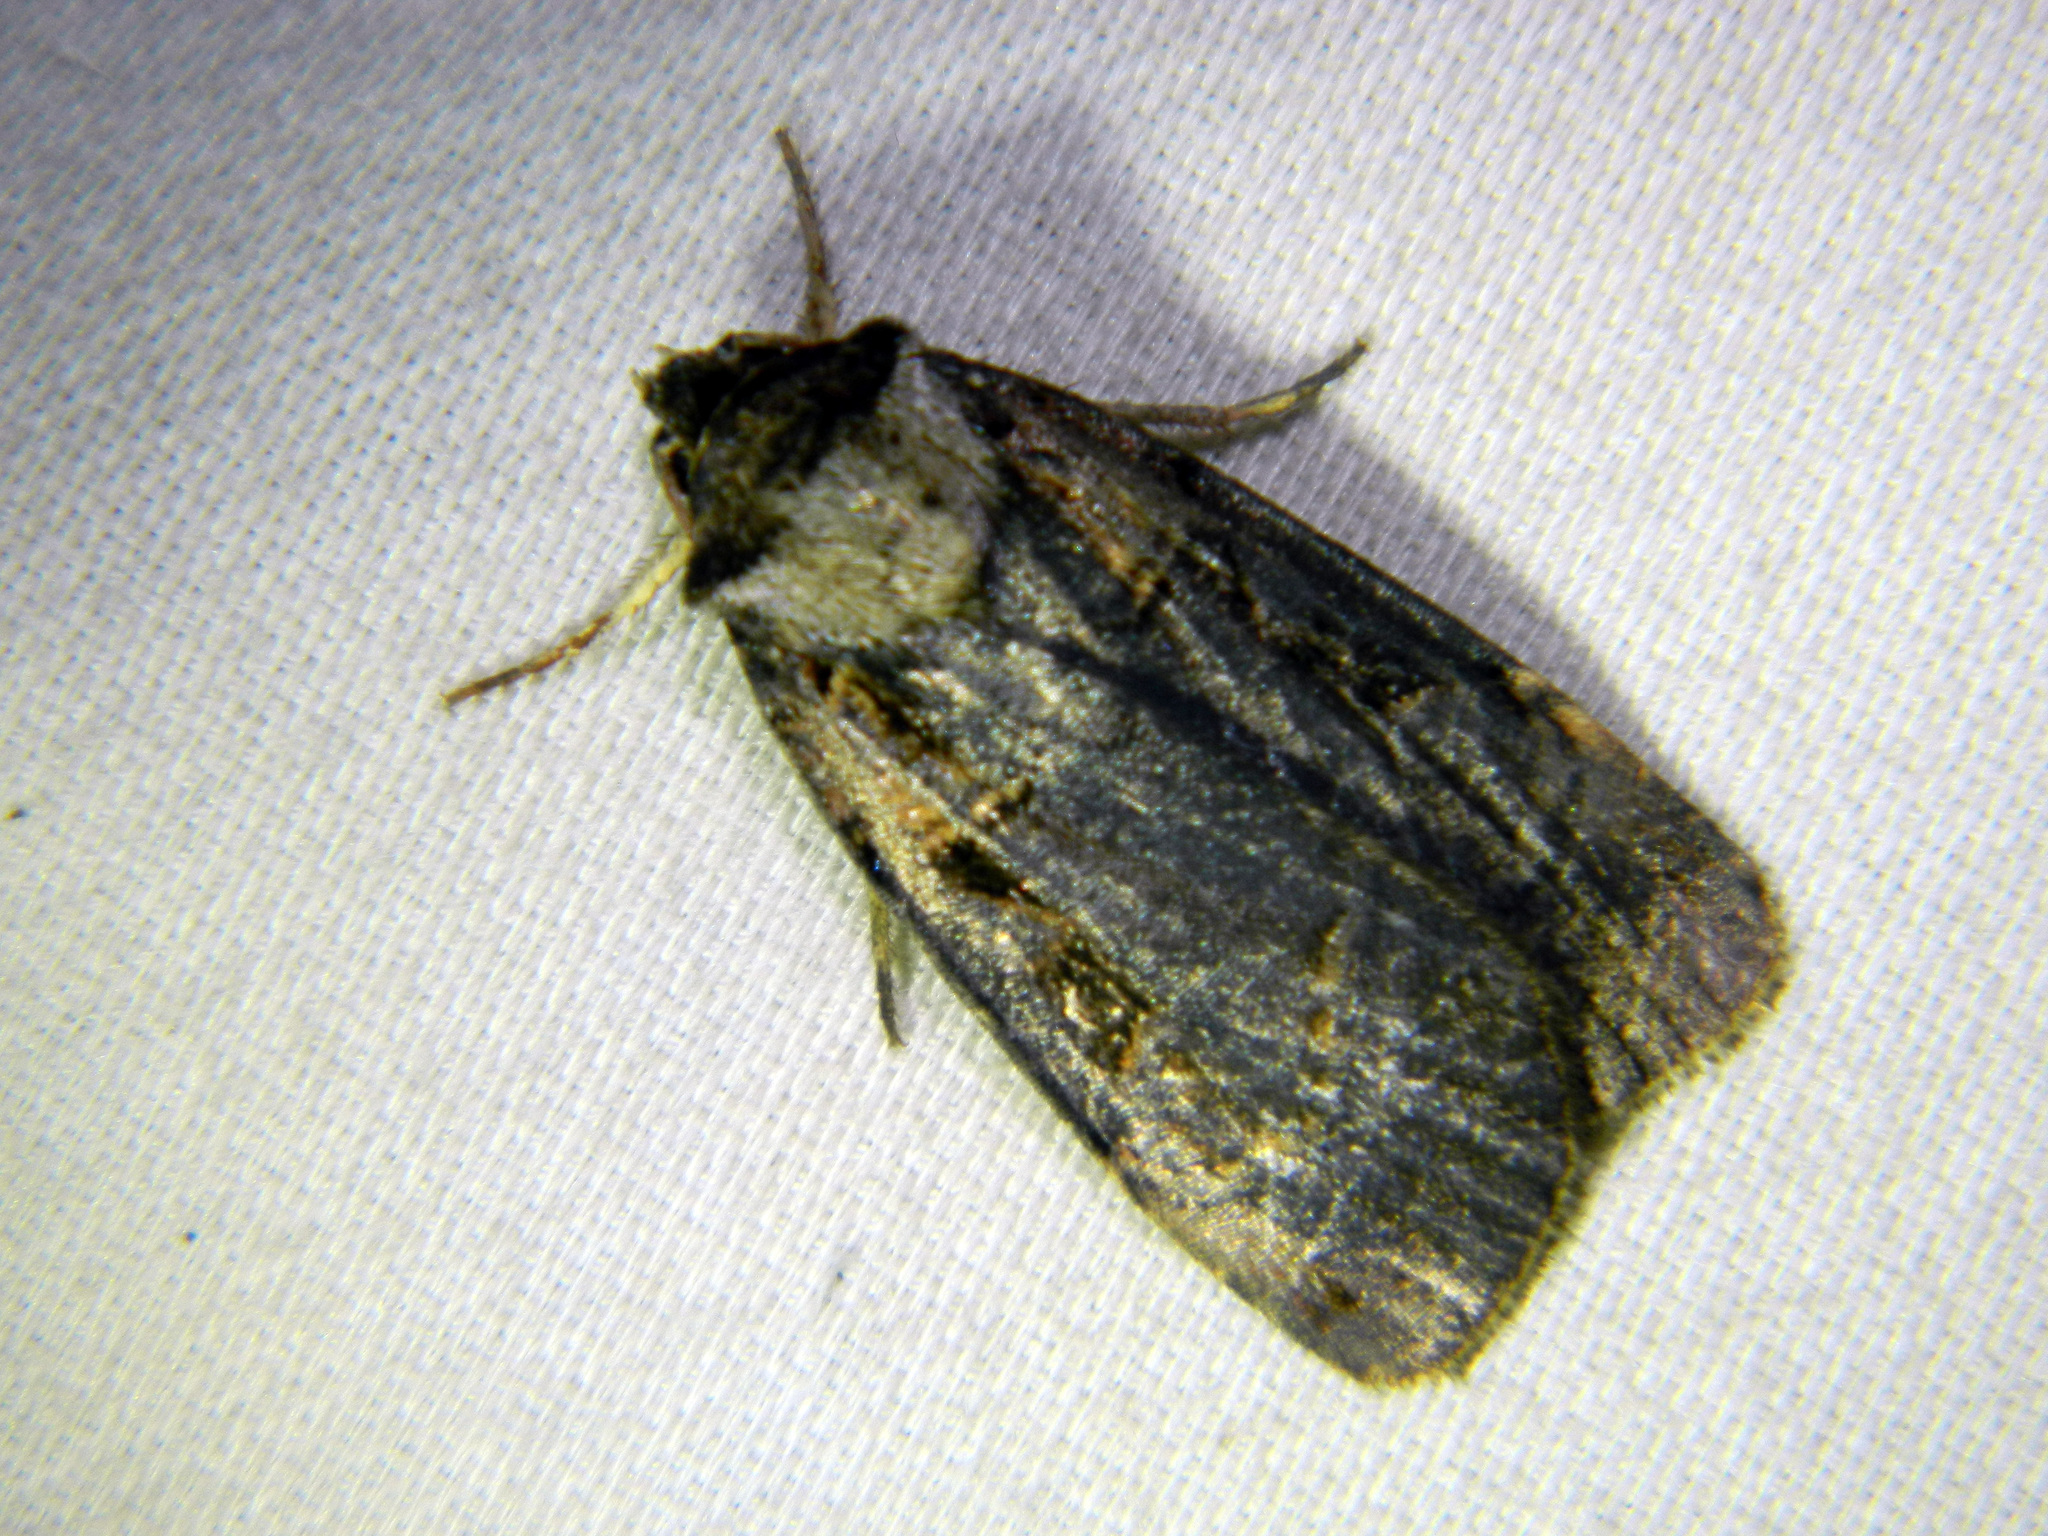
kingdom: Animalia
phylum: Arthropoda
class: Insecta
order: Lepidoptera
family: Noctuidae
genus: Pseudohermonassa
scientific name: Pseudohermonassa bicarnea
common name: Pink spotted dart
